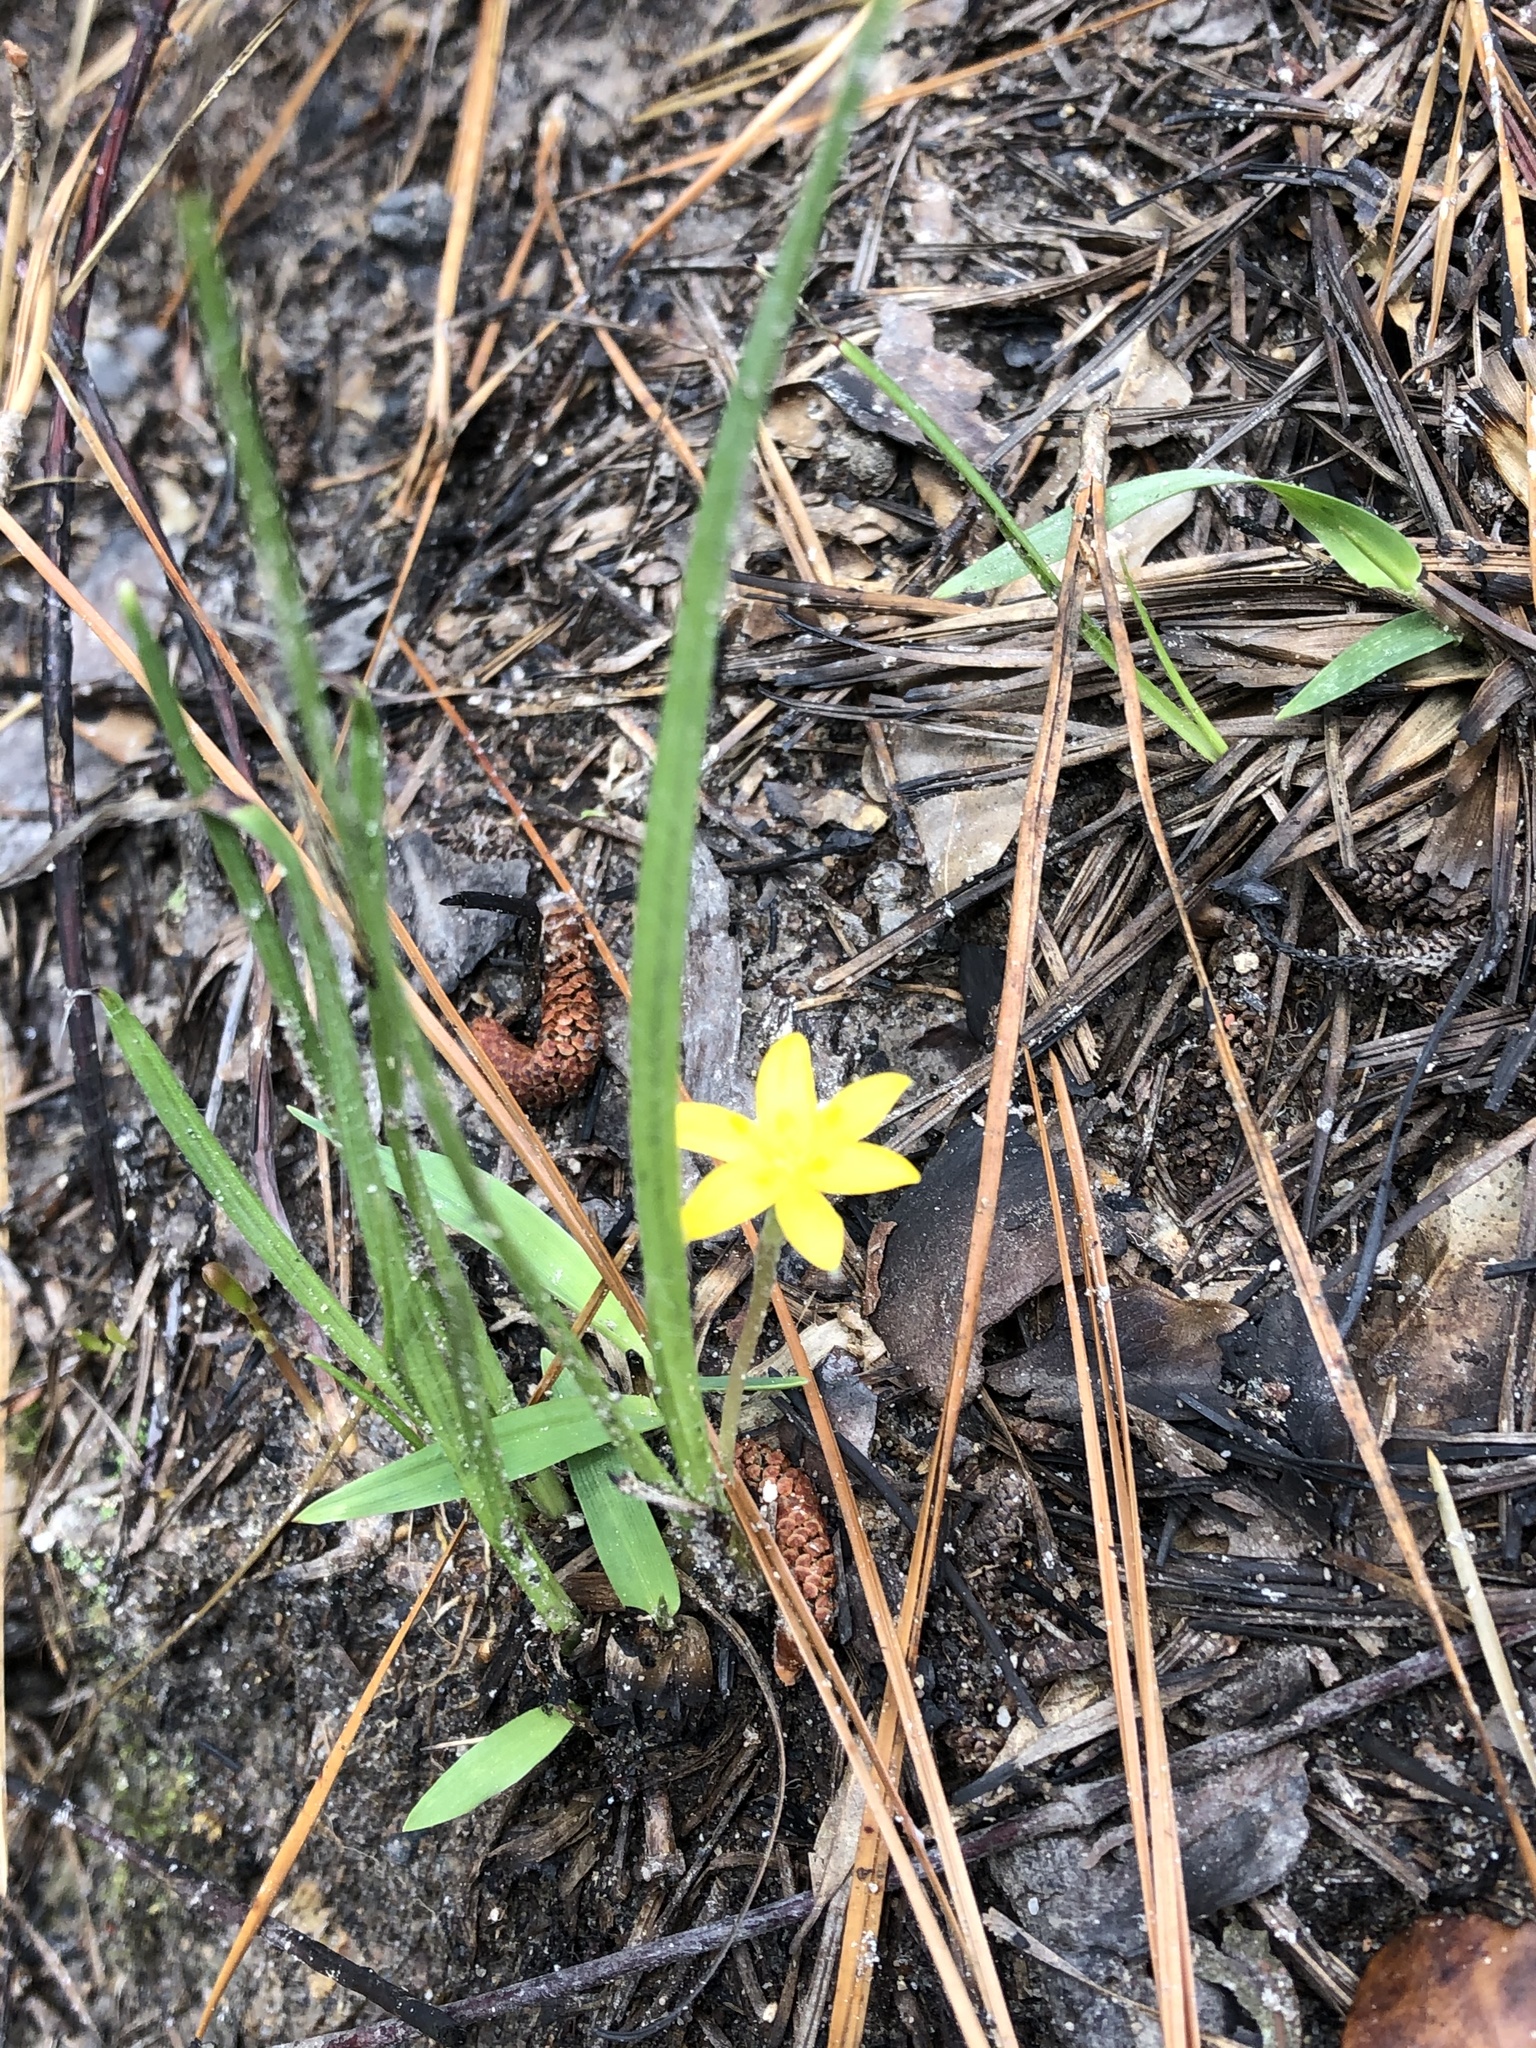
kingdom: Plantae
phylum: Tracheophyta
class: Liliopsida
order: Asparagales
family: Hypoxidaceae
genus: Hypoxis
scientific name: Hypoxis hirsuta
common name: Common goldstar
